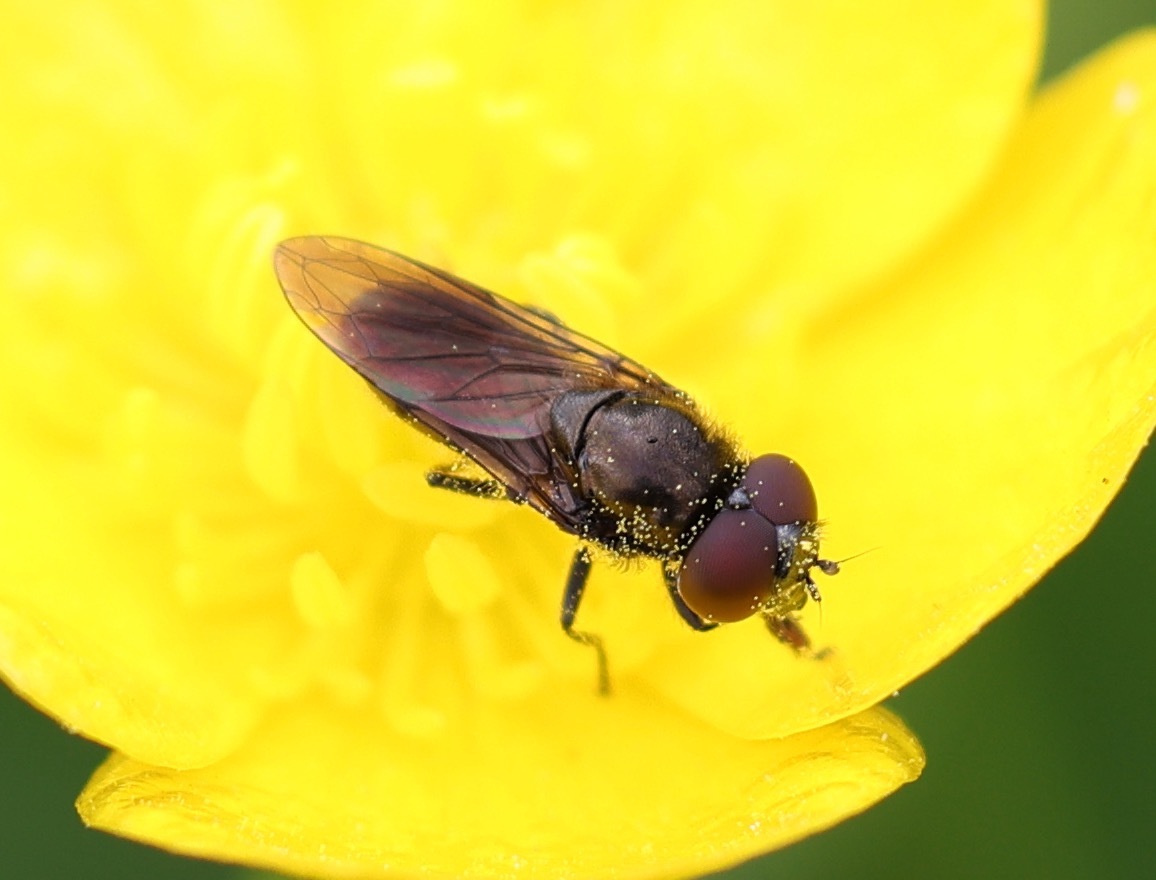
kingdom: Animalia
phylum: Arthropoda
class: Insecta
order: Diptera
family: Syrphidae
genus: Cheilosia
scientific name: Cheilosia impressa
